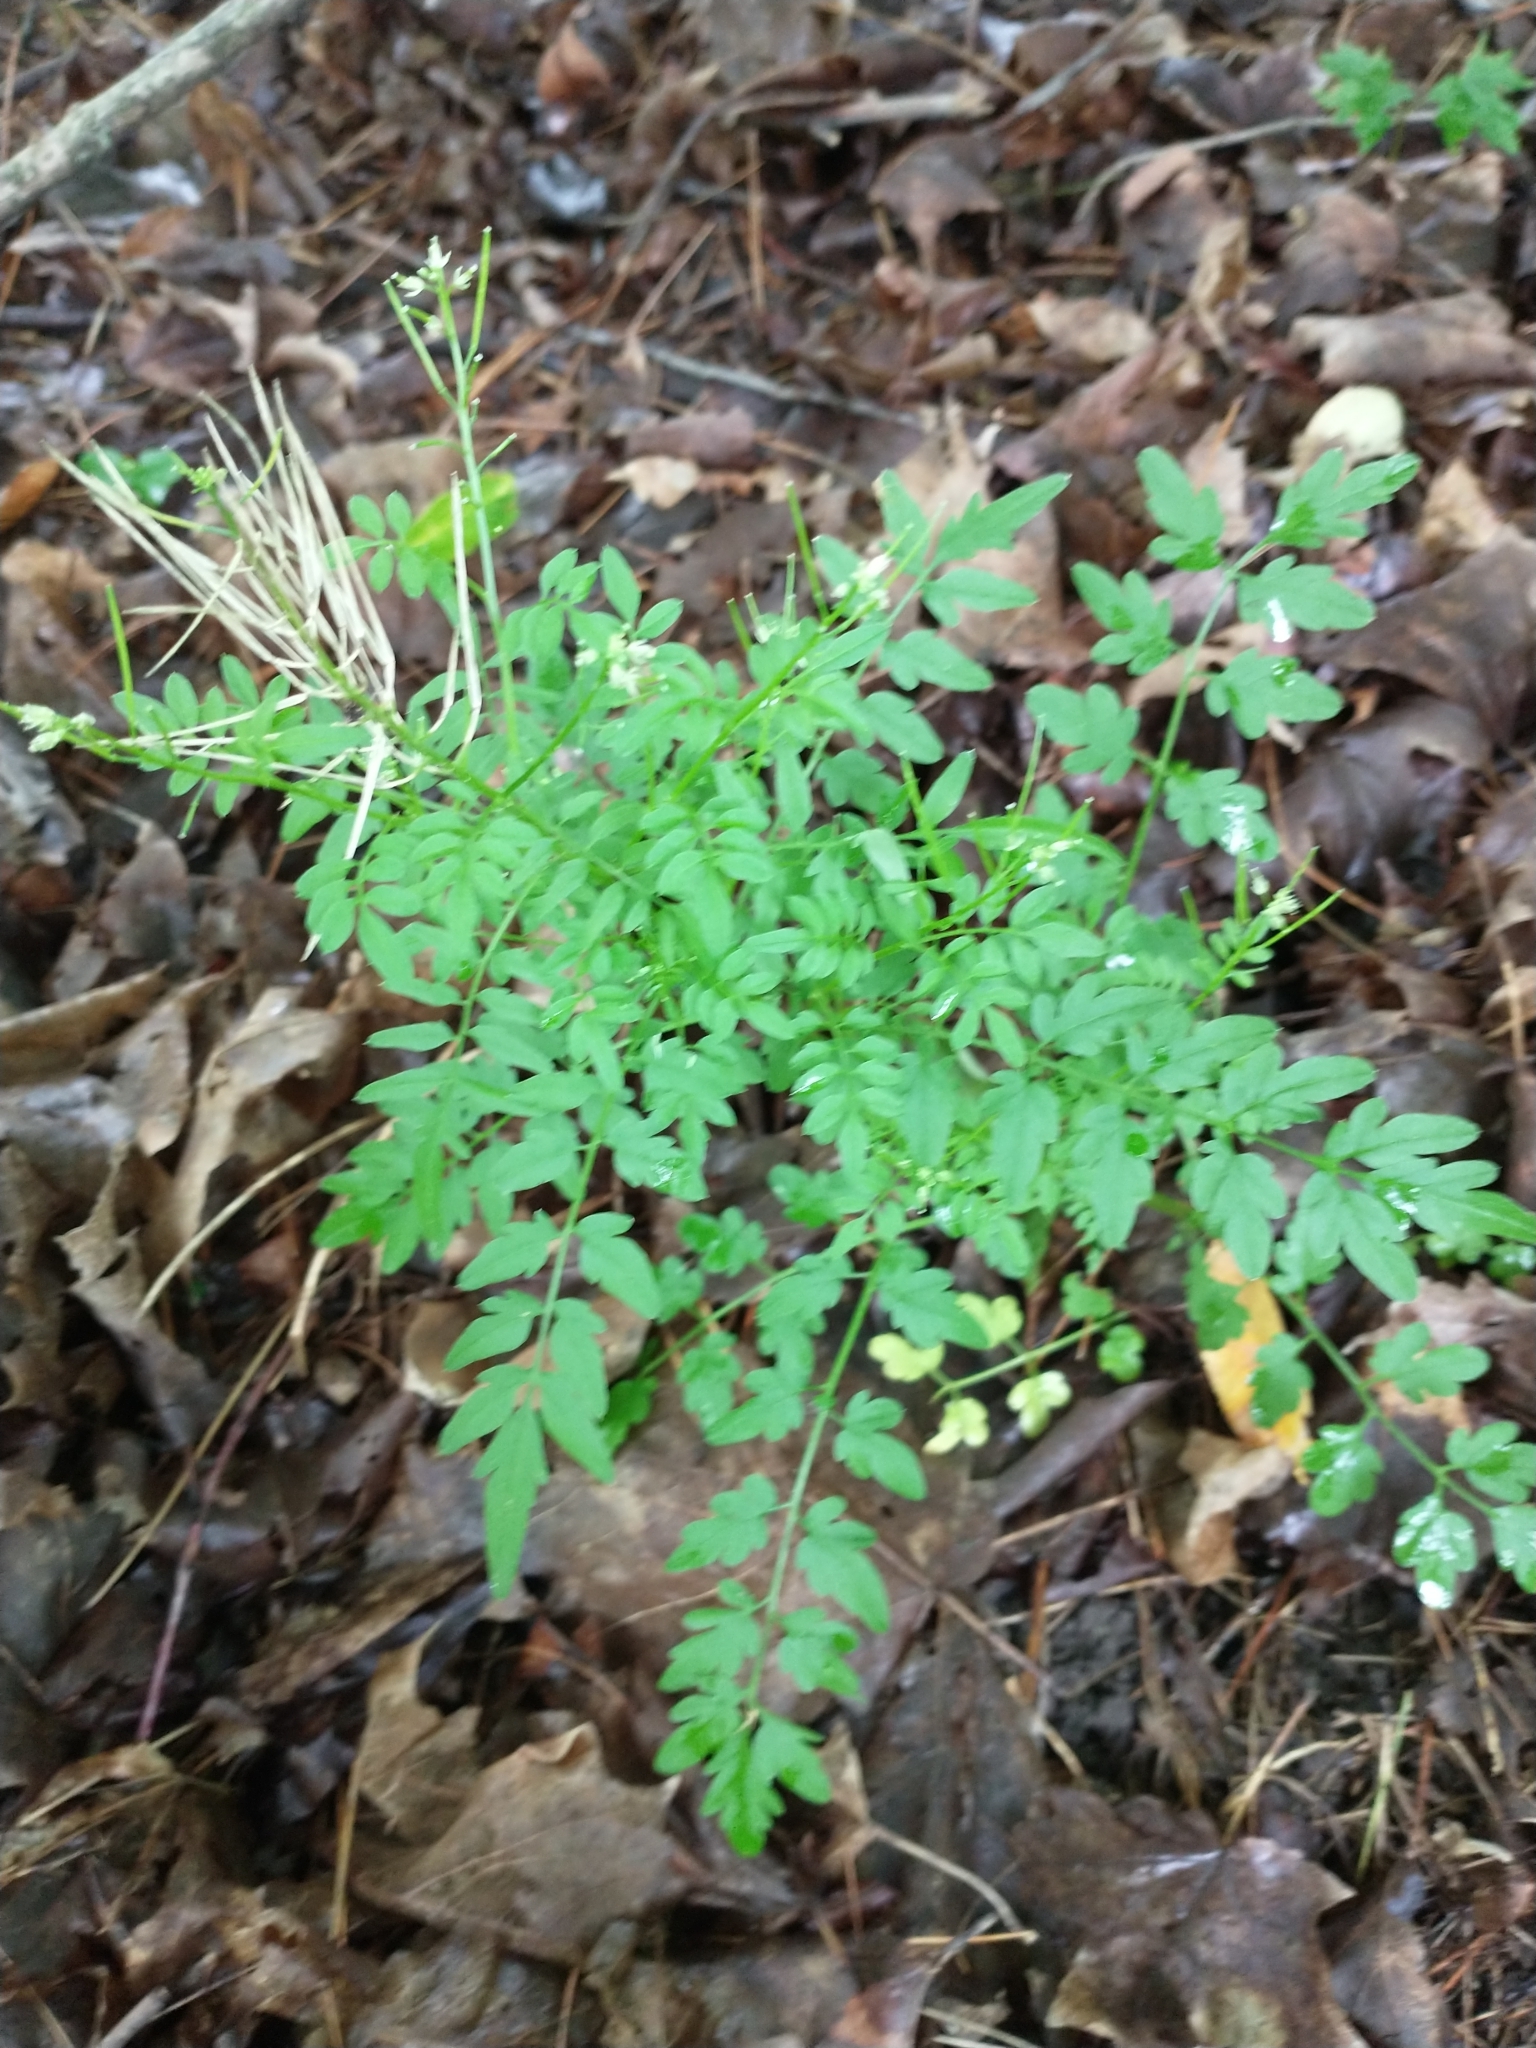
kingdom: Plantae
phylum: Tracheophyta
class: Magnoliopsida
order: Brassicales
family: Brassicaceae
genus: Cardamine
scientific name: Cardamine impatiens
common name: Narrow-leaved bitter-cress
